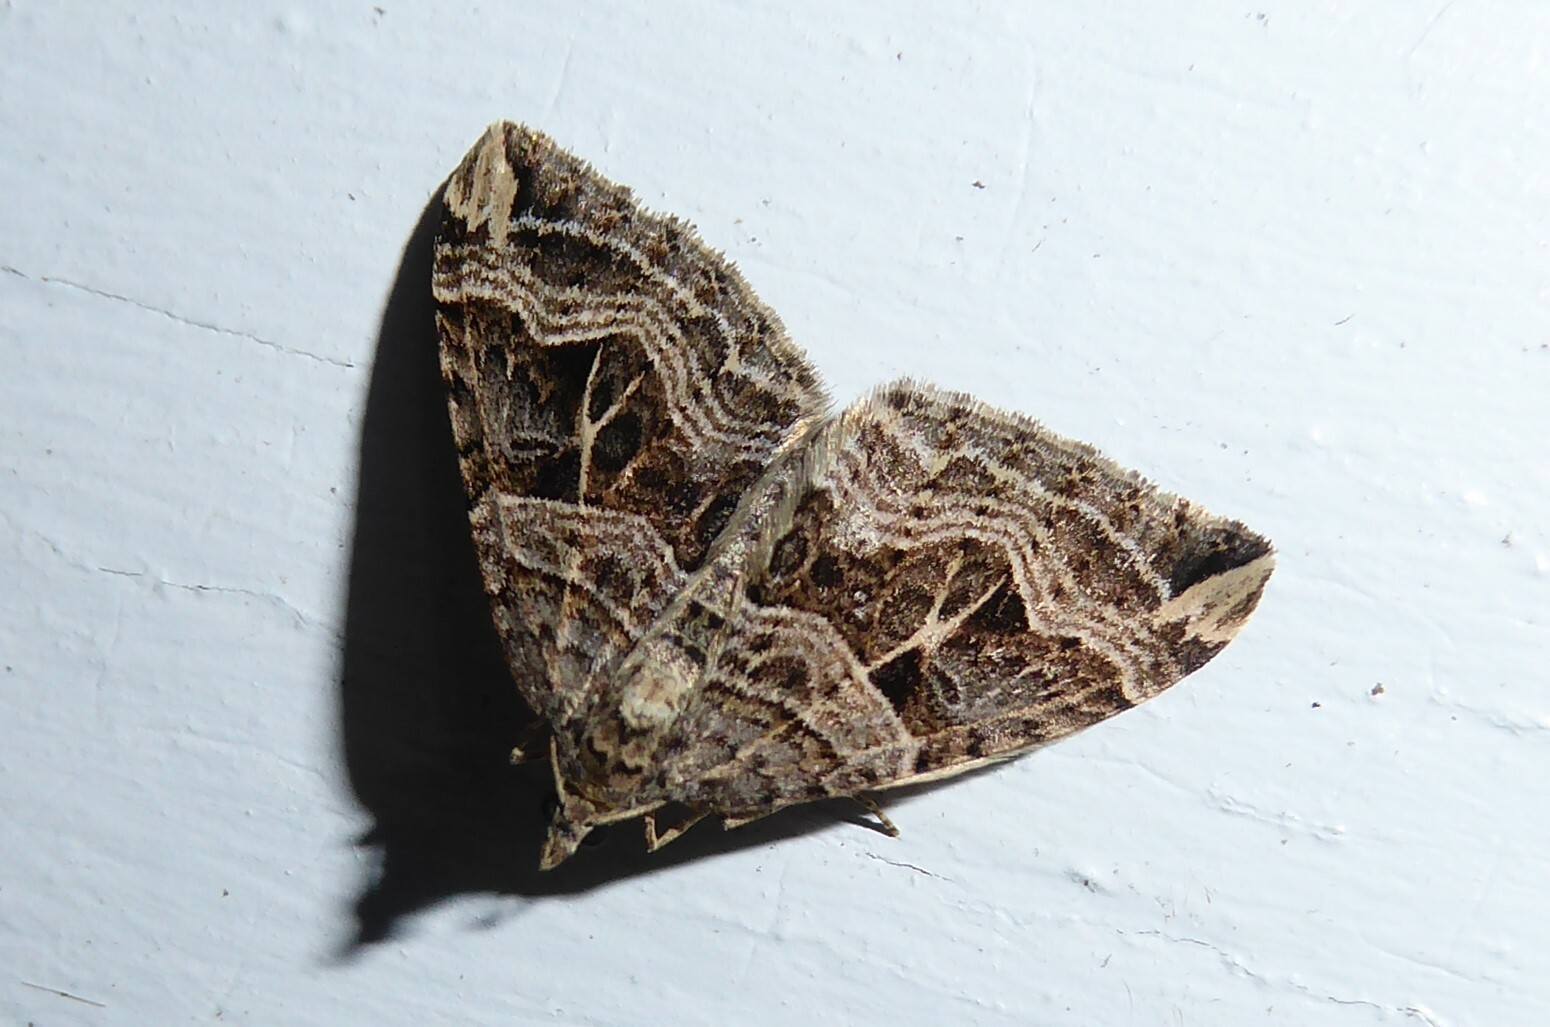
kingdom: Animalia
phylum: Arthropoda
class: Insecta
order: Lepidoptera
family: Geometridae
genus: Xanthorhoe
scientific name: Xanthorhoe semifissata
